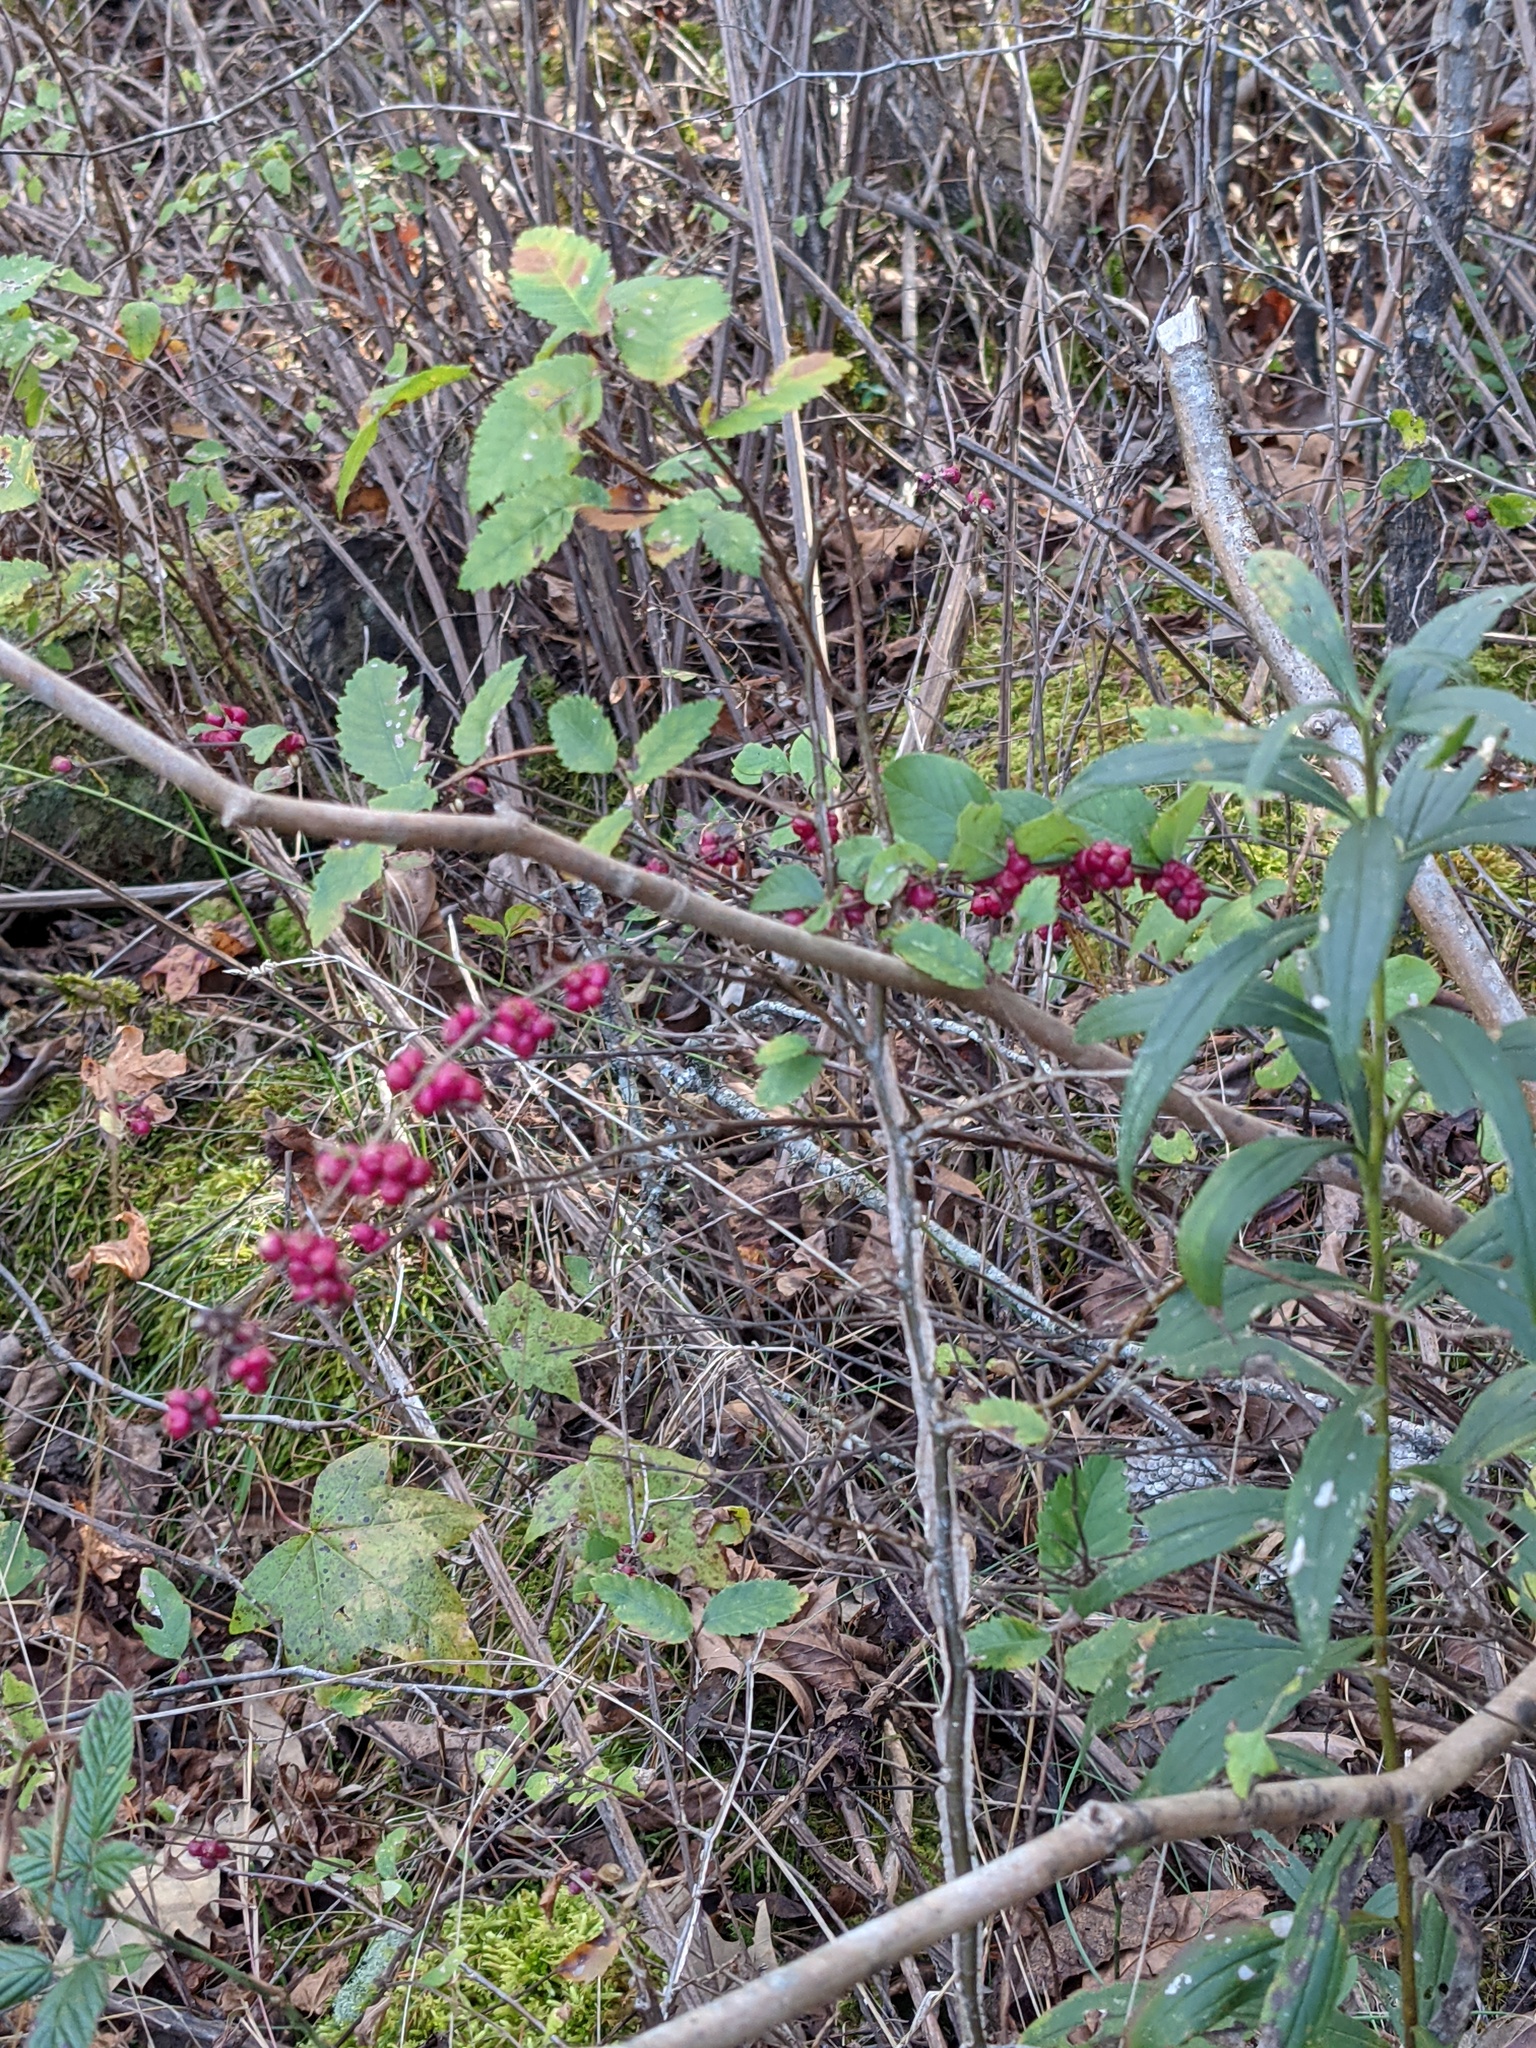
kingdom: Plantae
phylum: Tracheophyta
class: Magnoliopsida
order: Dipsacales
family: Caprifoliaceae
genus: Symphoricarpos
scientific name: Symphoricarpos orbiculatus
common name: Coralberry
